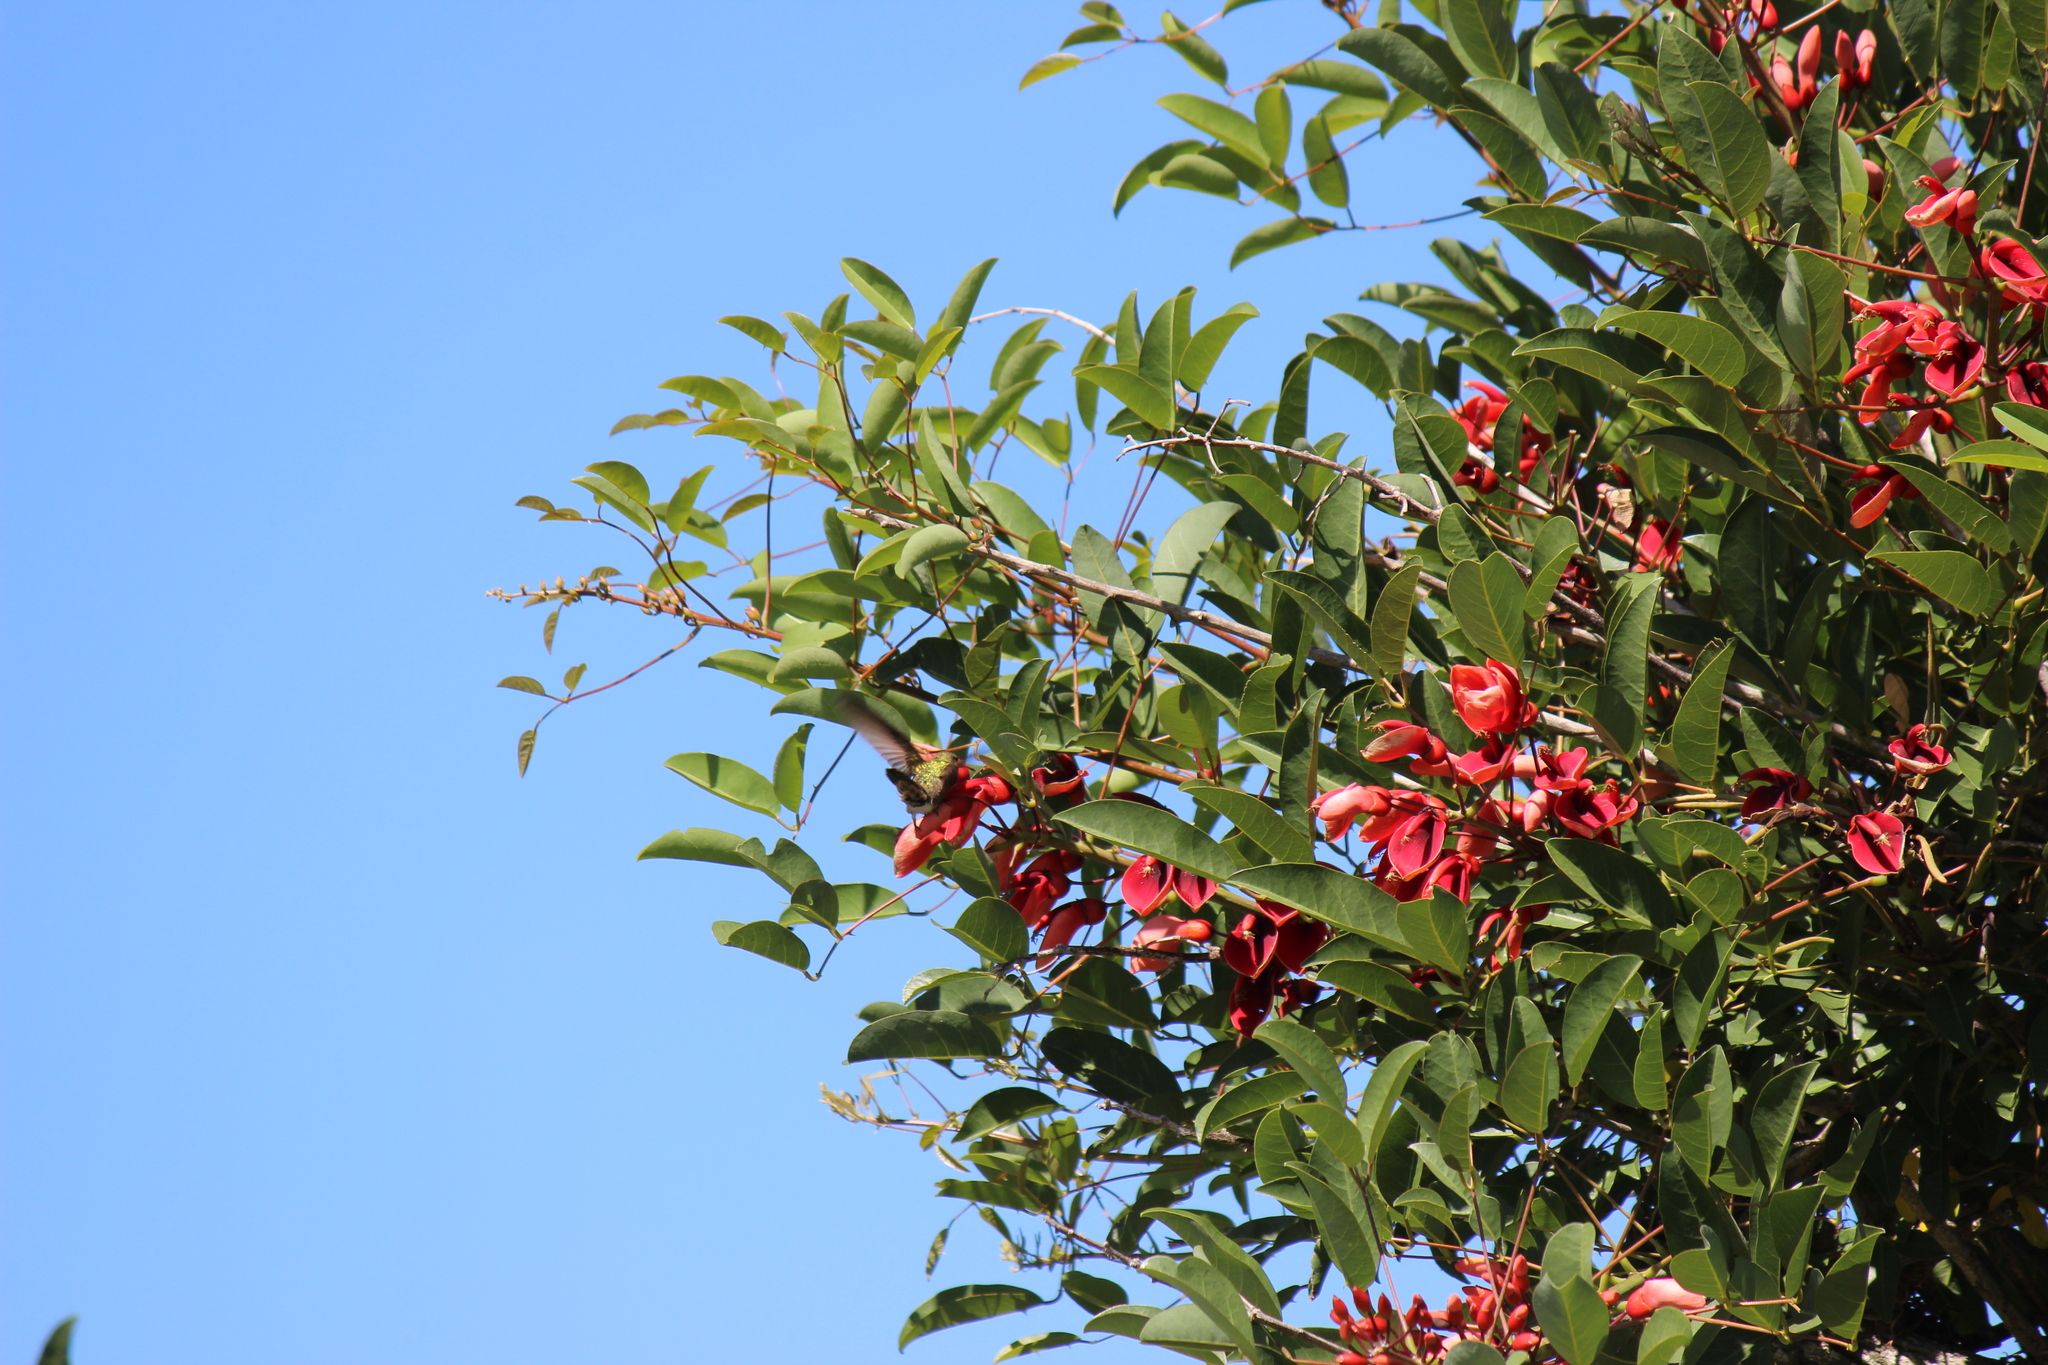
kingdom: Plantae
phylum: Tracheophyta
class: Magnoliopsida
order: Fabales
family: Fabaceae
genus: Erythrina
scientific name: Erythrina crista-galli
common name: Cockspur coral tree
